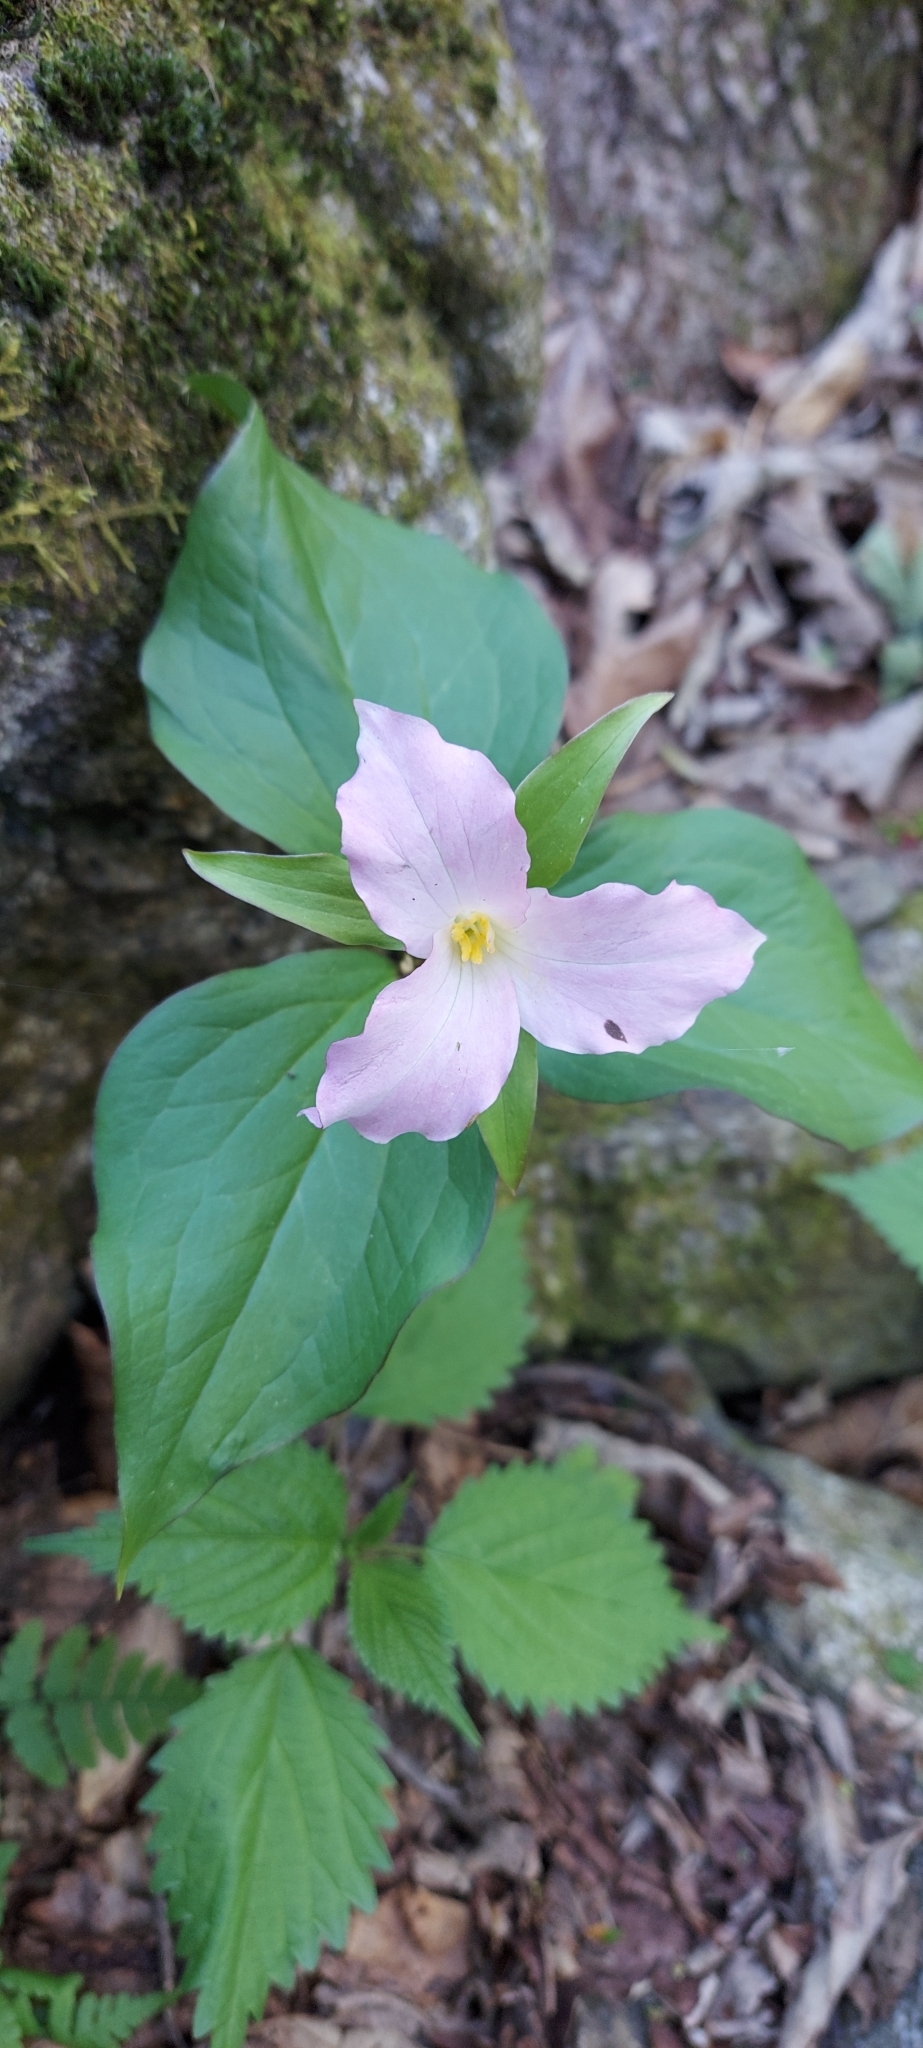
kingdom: Plantae
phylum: Tracheophyta
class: Liliopsida
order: Liliales
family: Melanthiaceae
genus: Trillium
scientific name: Trillium grandiflorum
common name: Great white trillium
